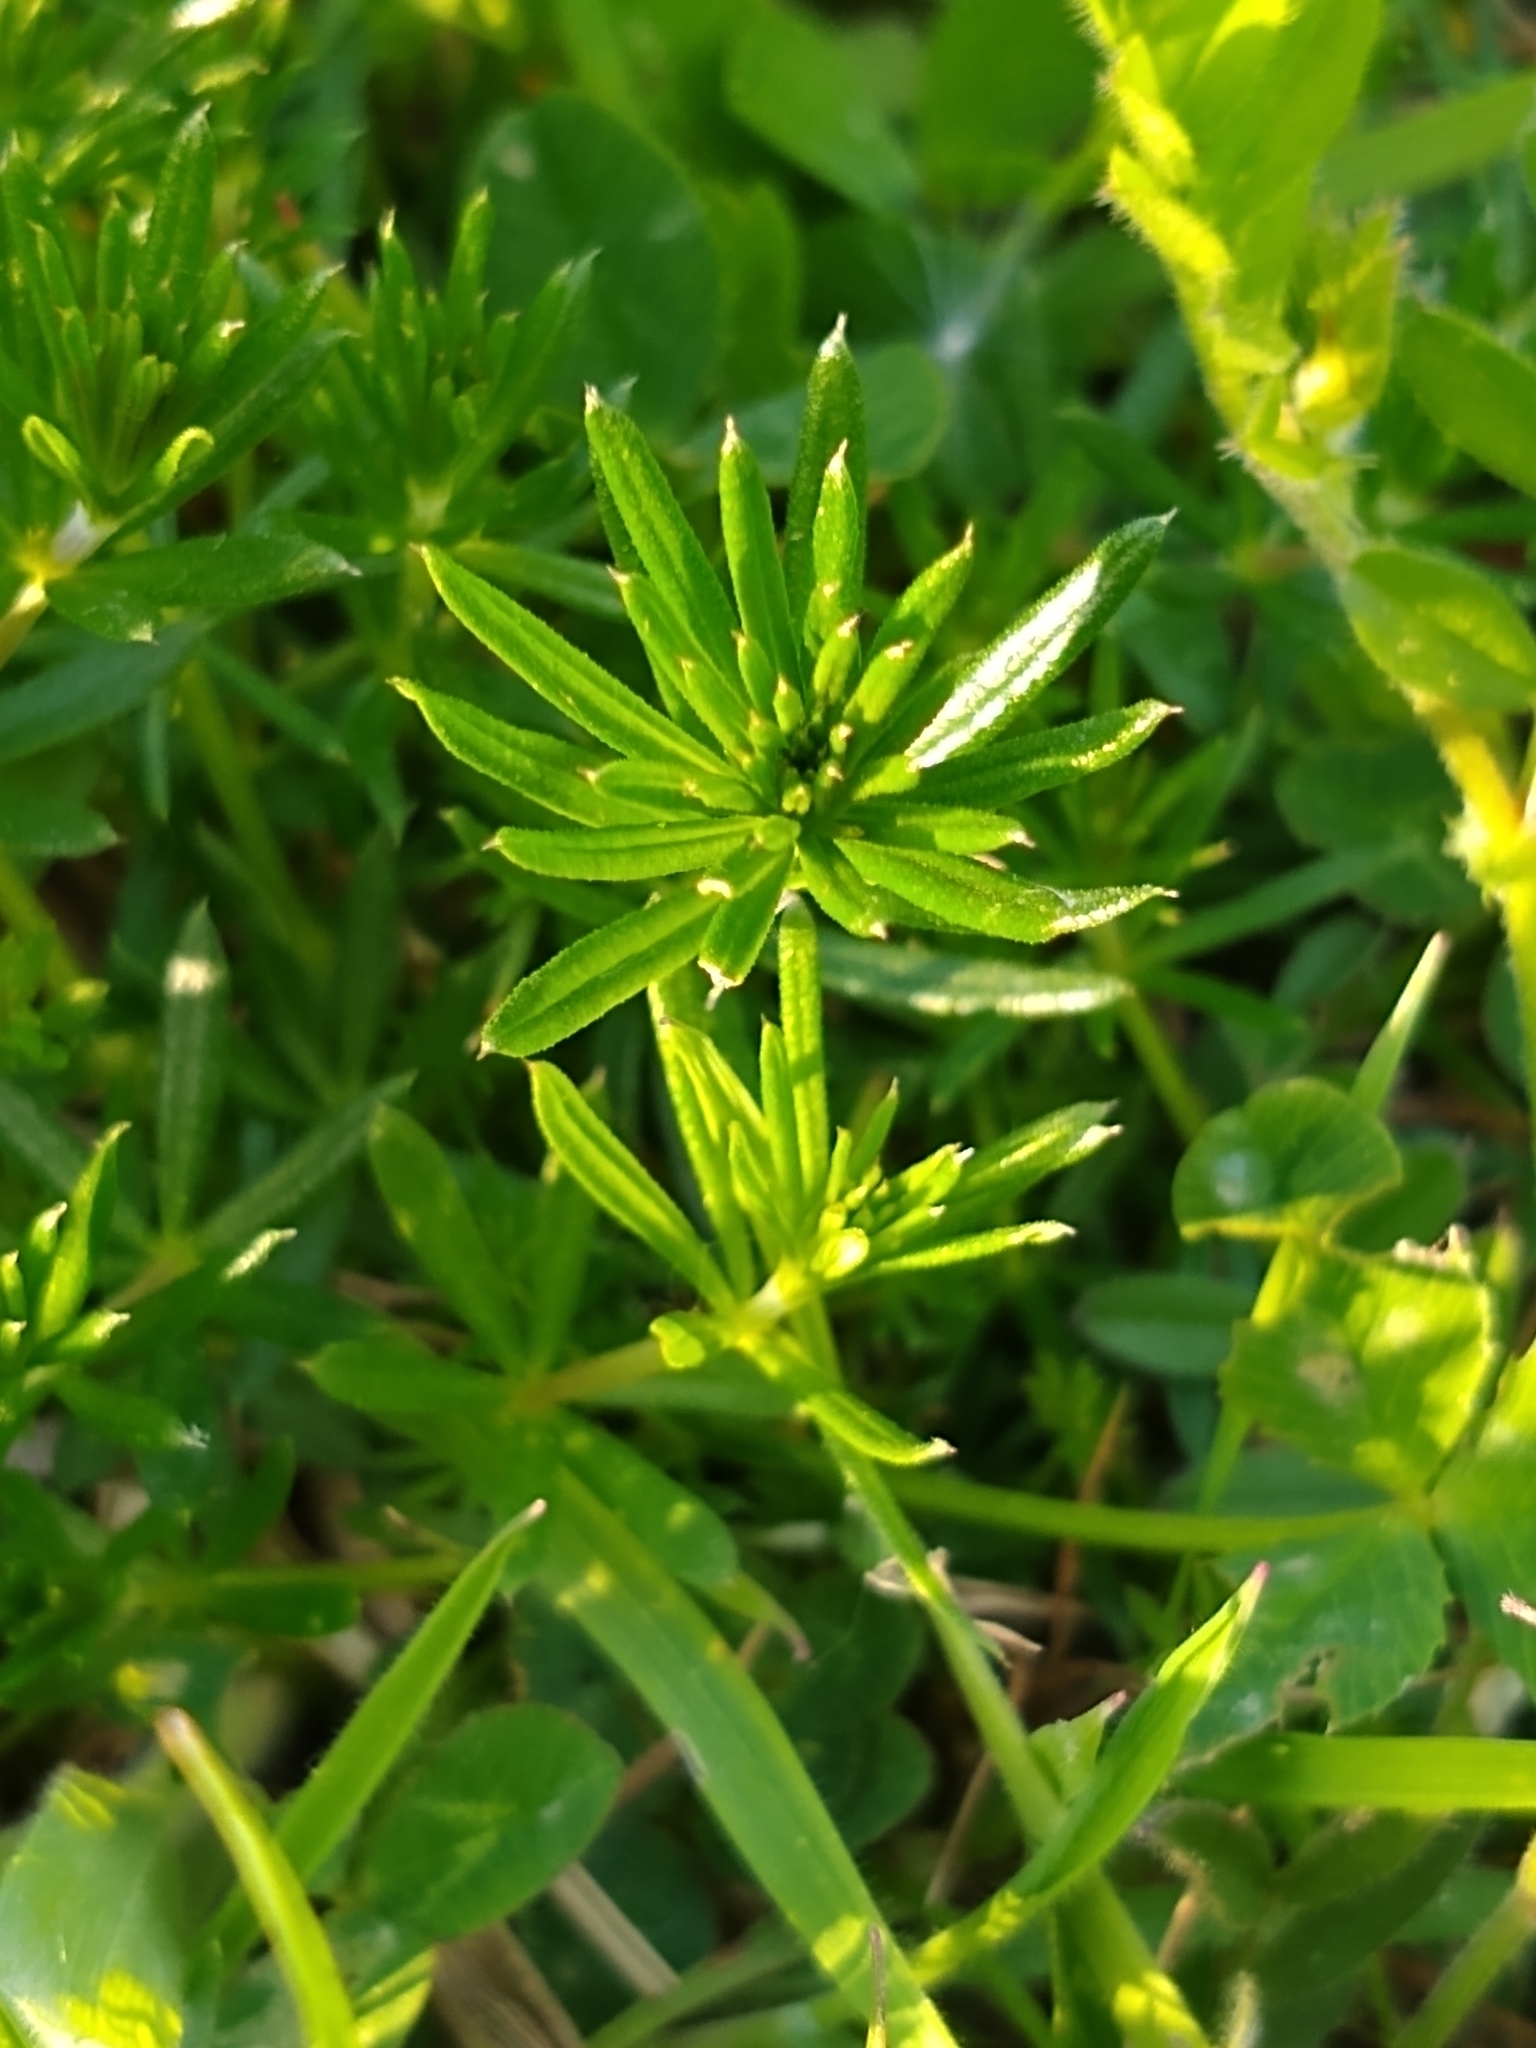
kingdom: Plantae
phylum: Tracheophyta
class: Magnoliopsida
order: Gentianales
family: Rubiaceae
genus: Galium
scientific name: Galium aparine
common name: Cleavers
